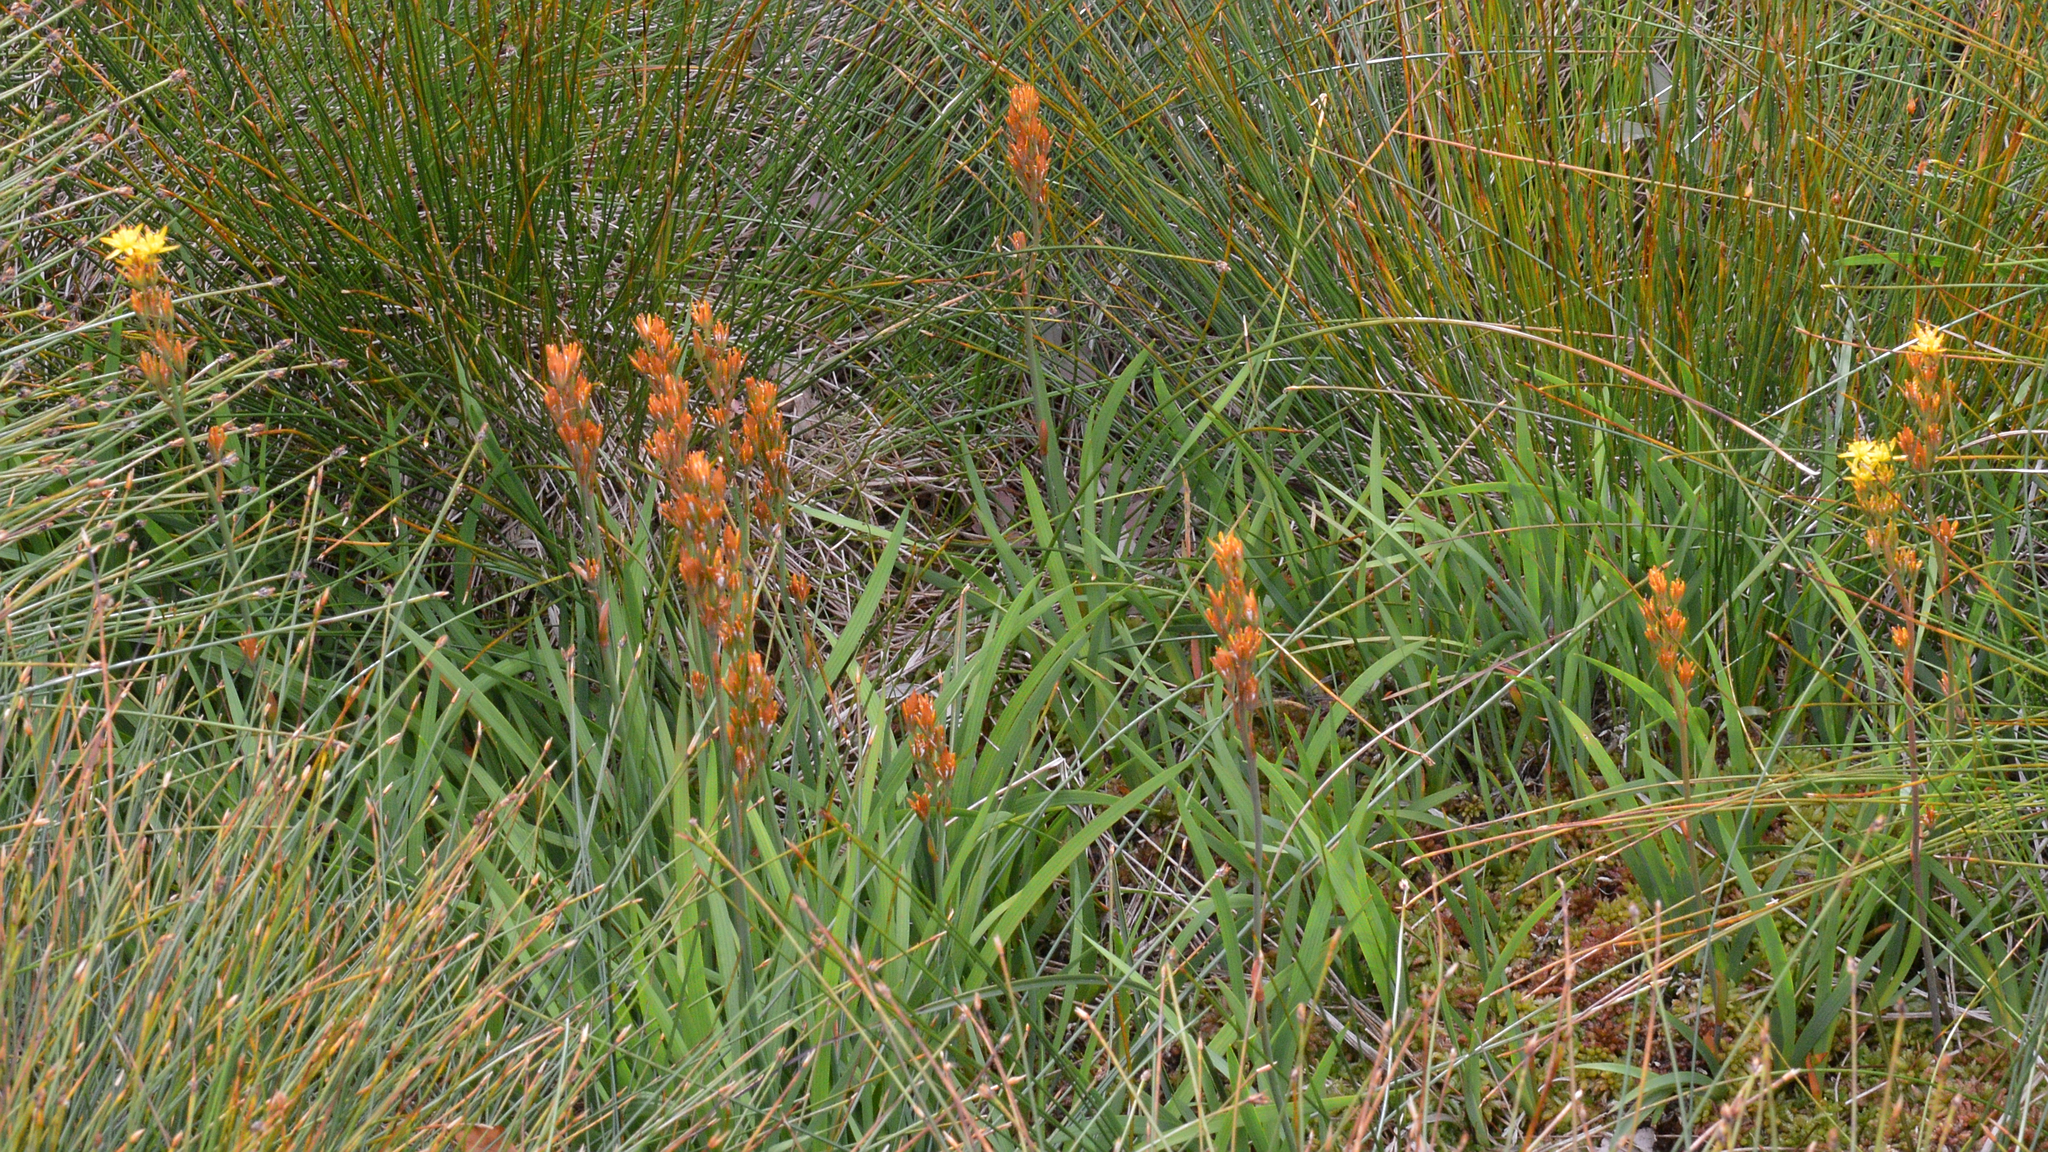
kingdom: Plantae
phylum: Tracheophyta
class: Liliopsida
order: Dioscoreales
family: Nartheciaceae
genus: Narthecium
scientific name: Narthecium ossifragum
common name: Bog asphodel
